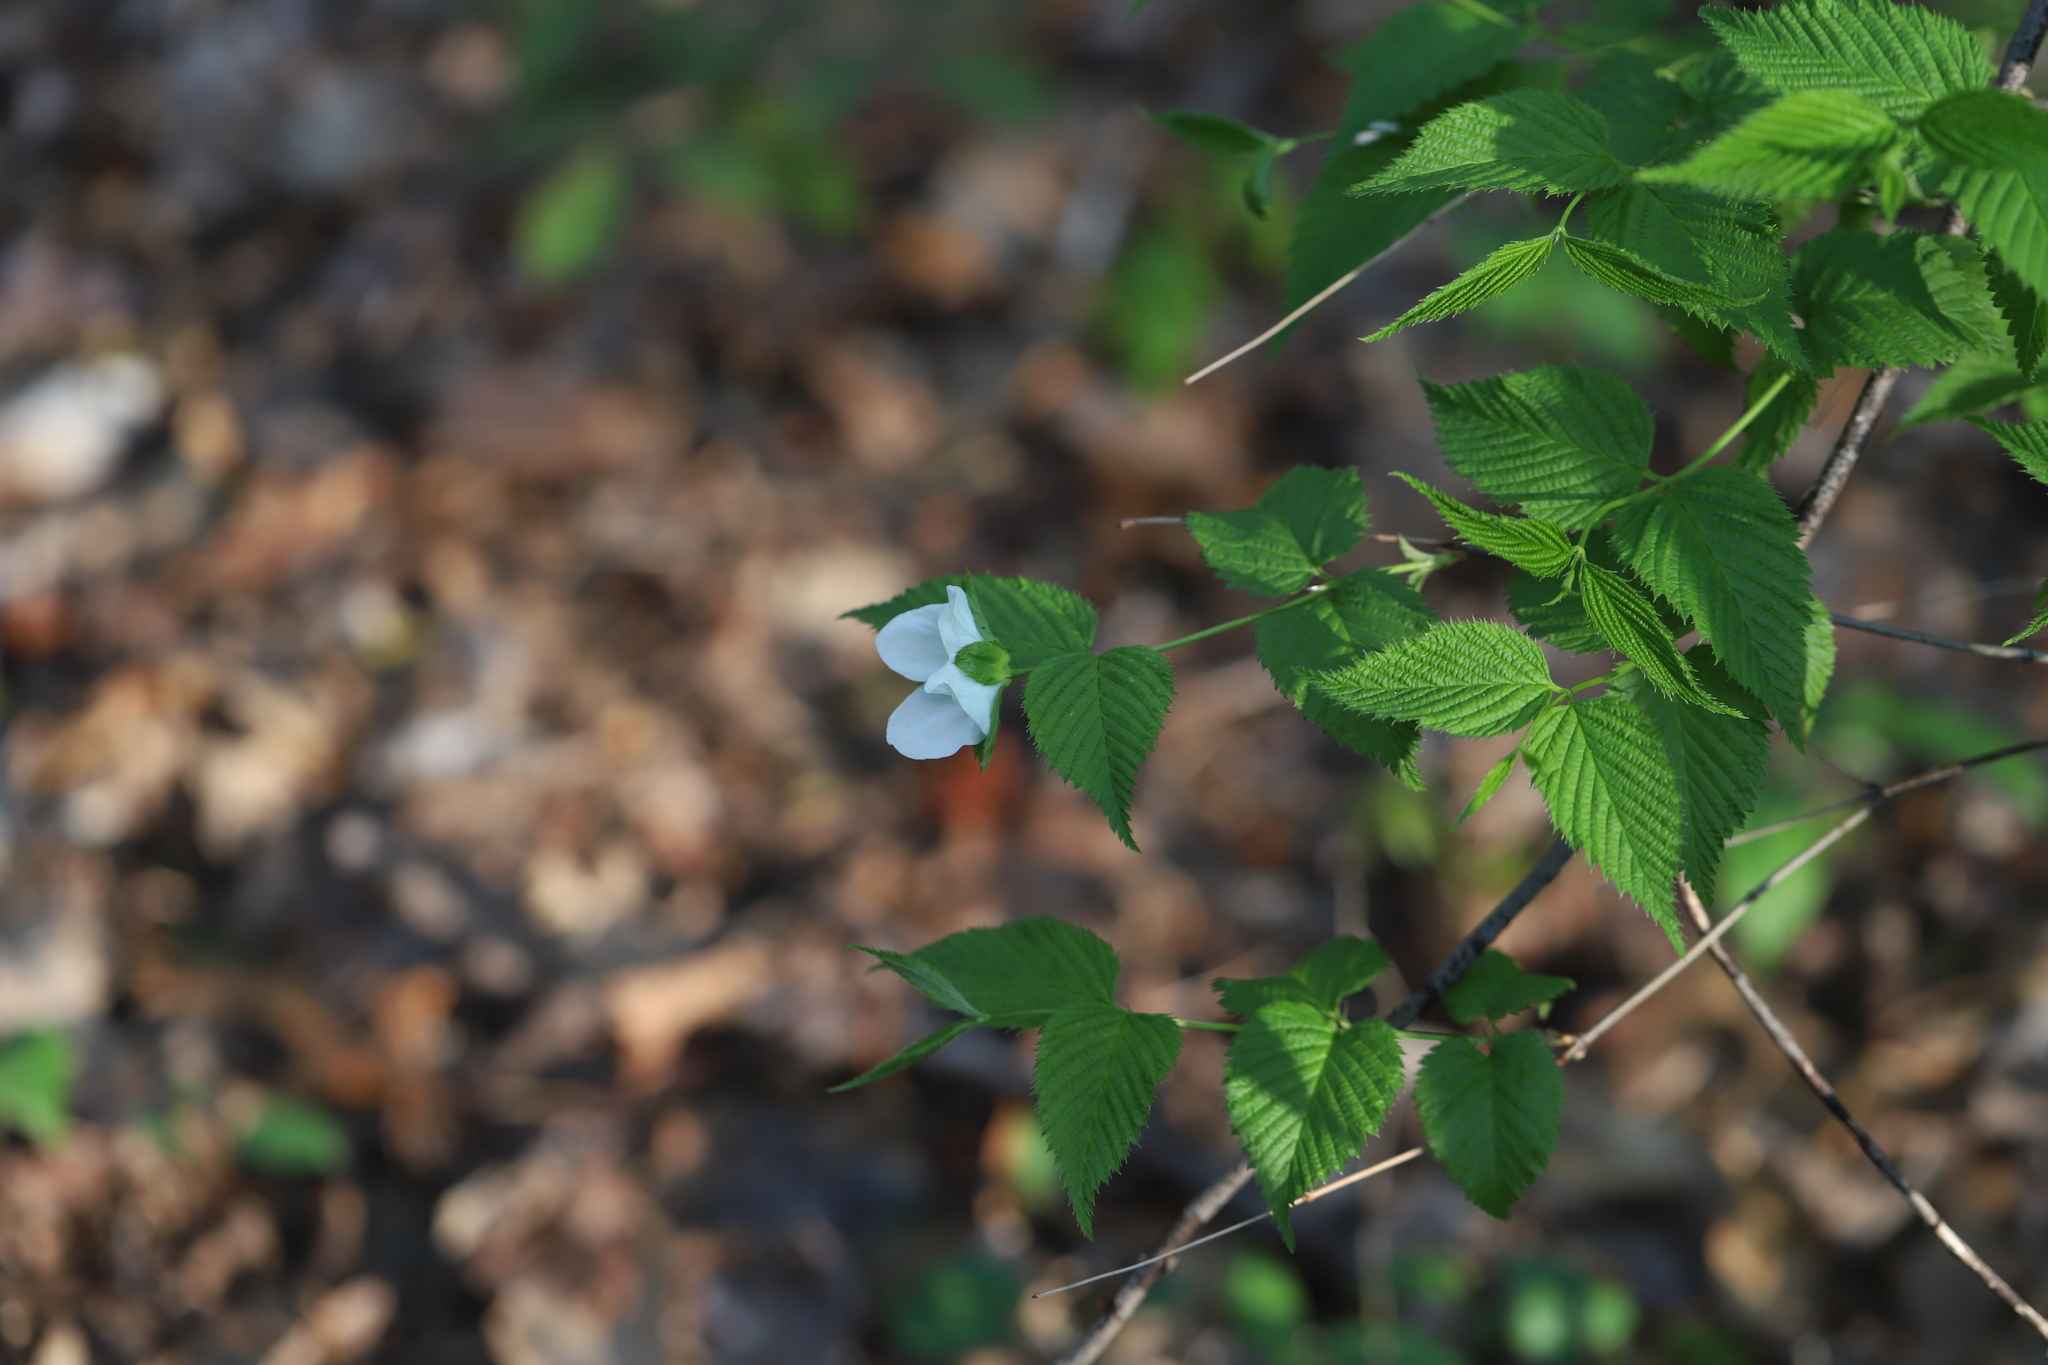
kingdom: Plantae
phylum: Tracheophyta
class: Magnoliopsida
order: Rosales
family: Rosaceae
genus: Rhodotypos
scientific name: Rhodotypos scandens
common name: Jetbead
